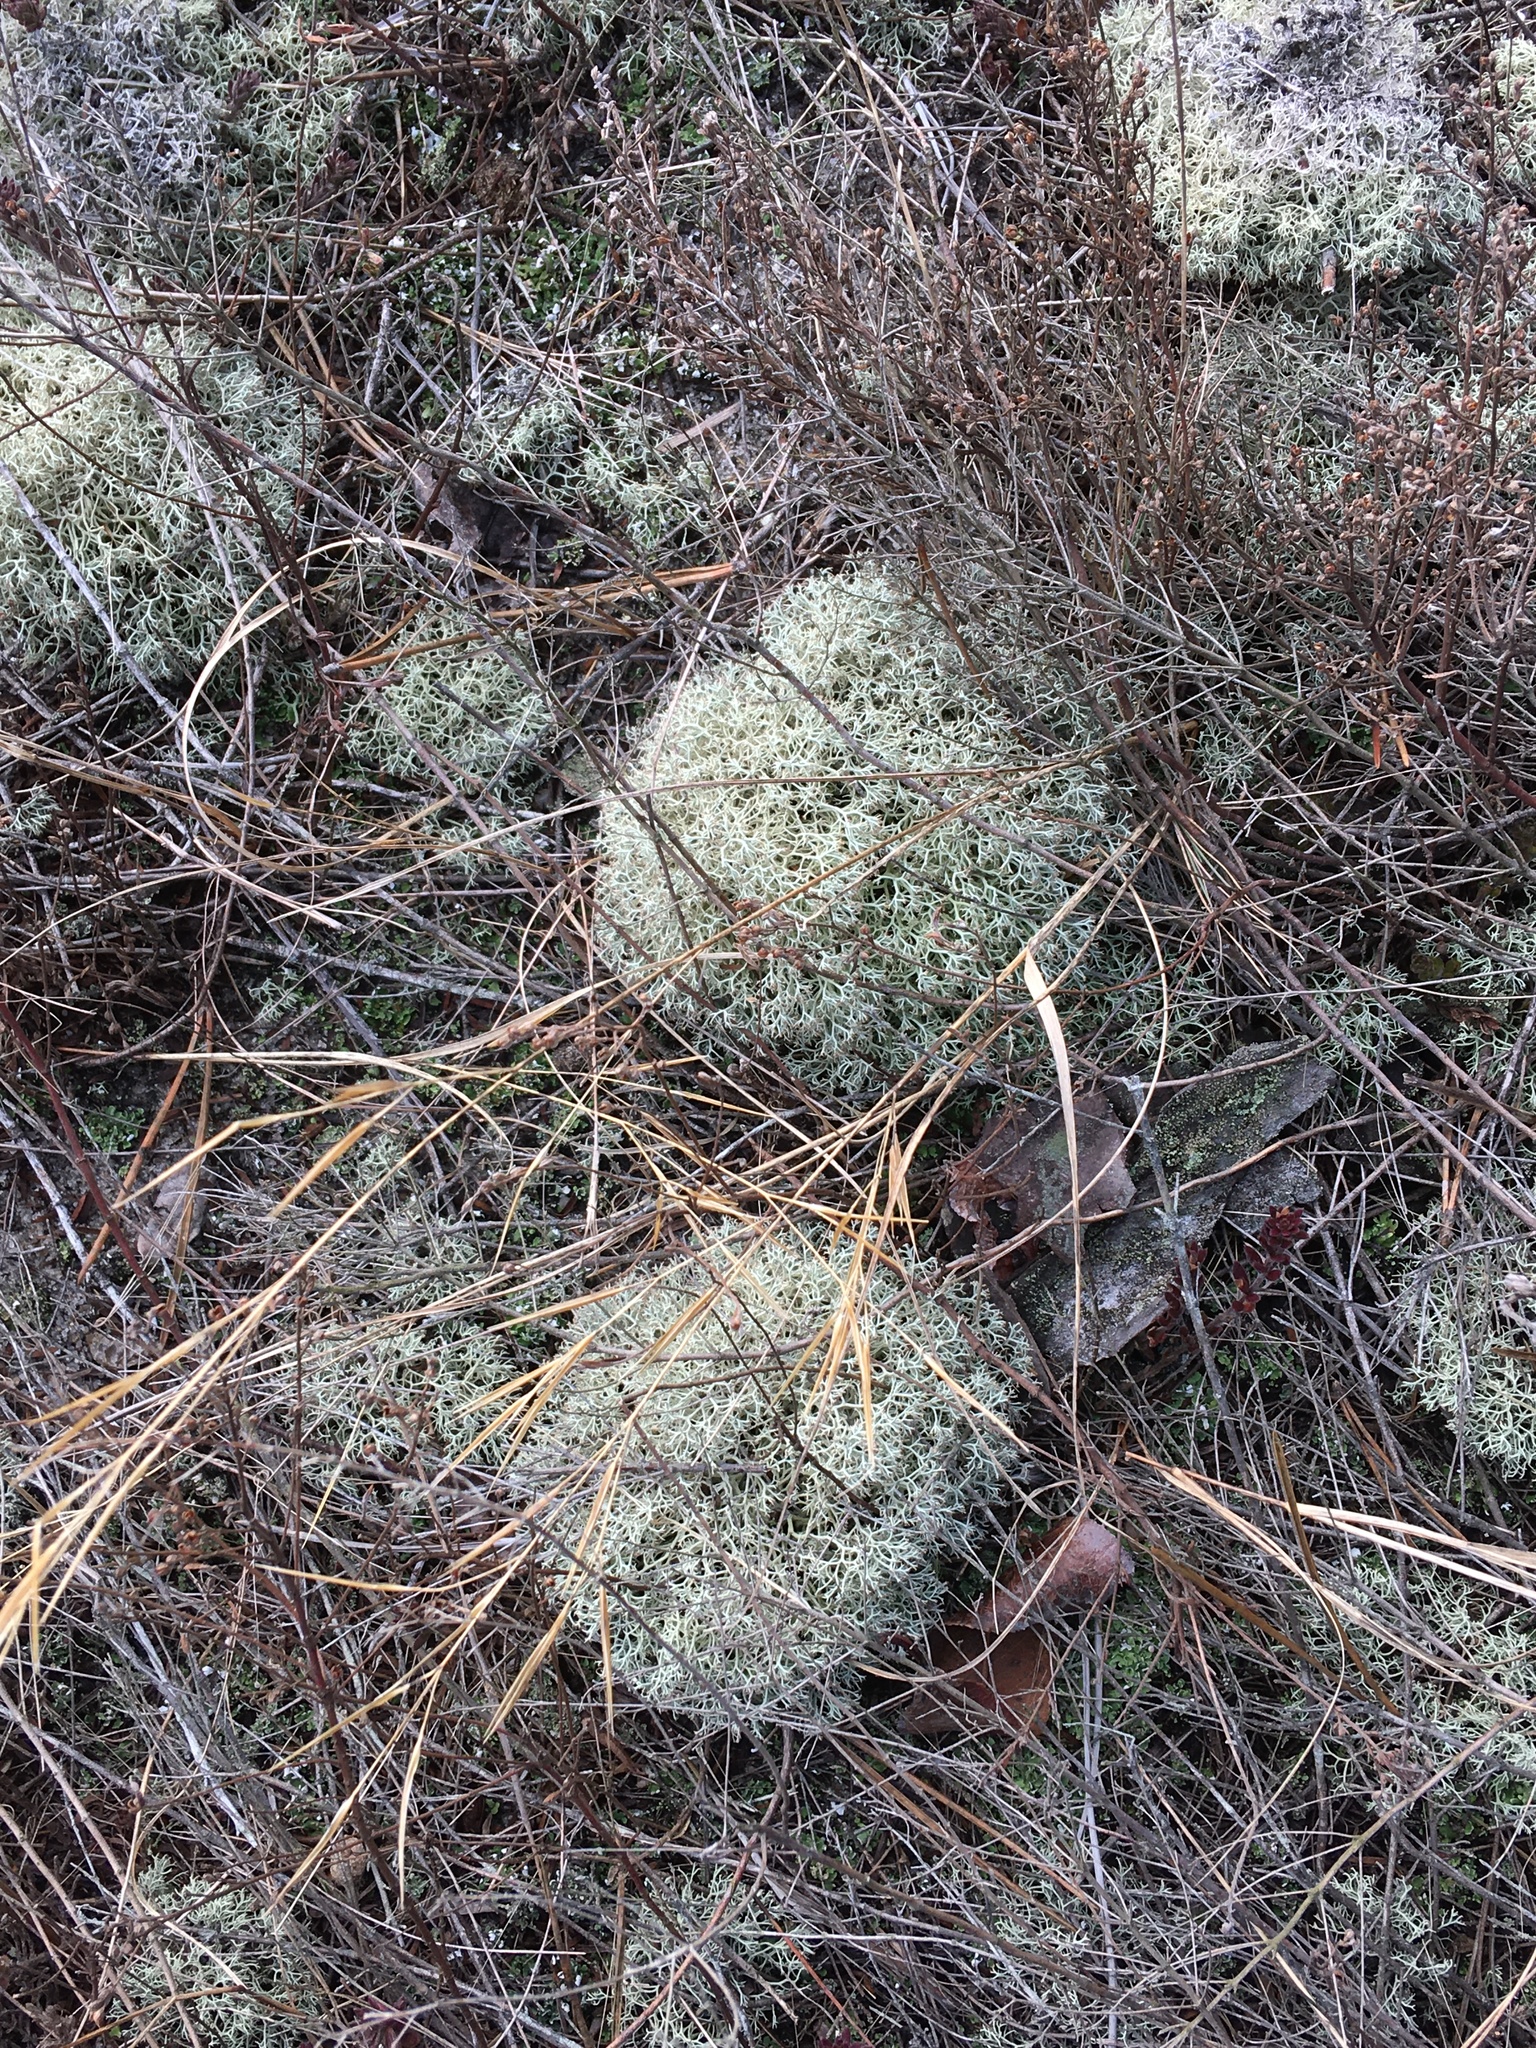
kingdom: Fungi
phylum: Ascomycota
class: Lecanoromycetes
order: Lecanorales
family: Cladoniaceae
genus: Cladonia
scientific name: Cladonia subtenuis
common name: Dixie reindeer lichen
